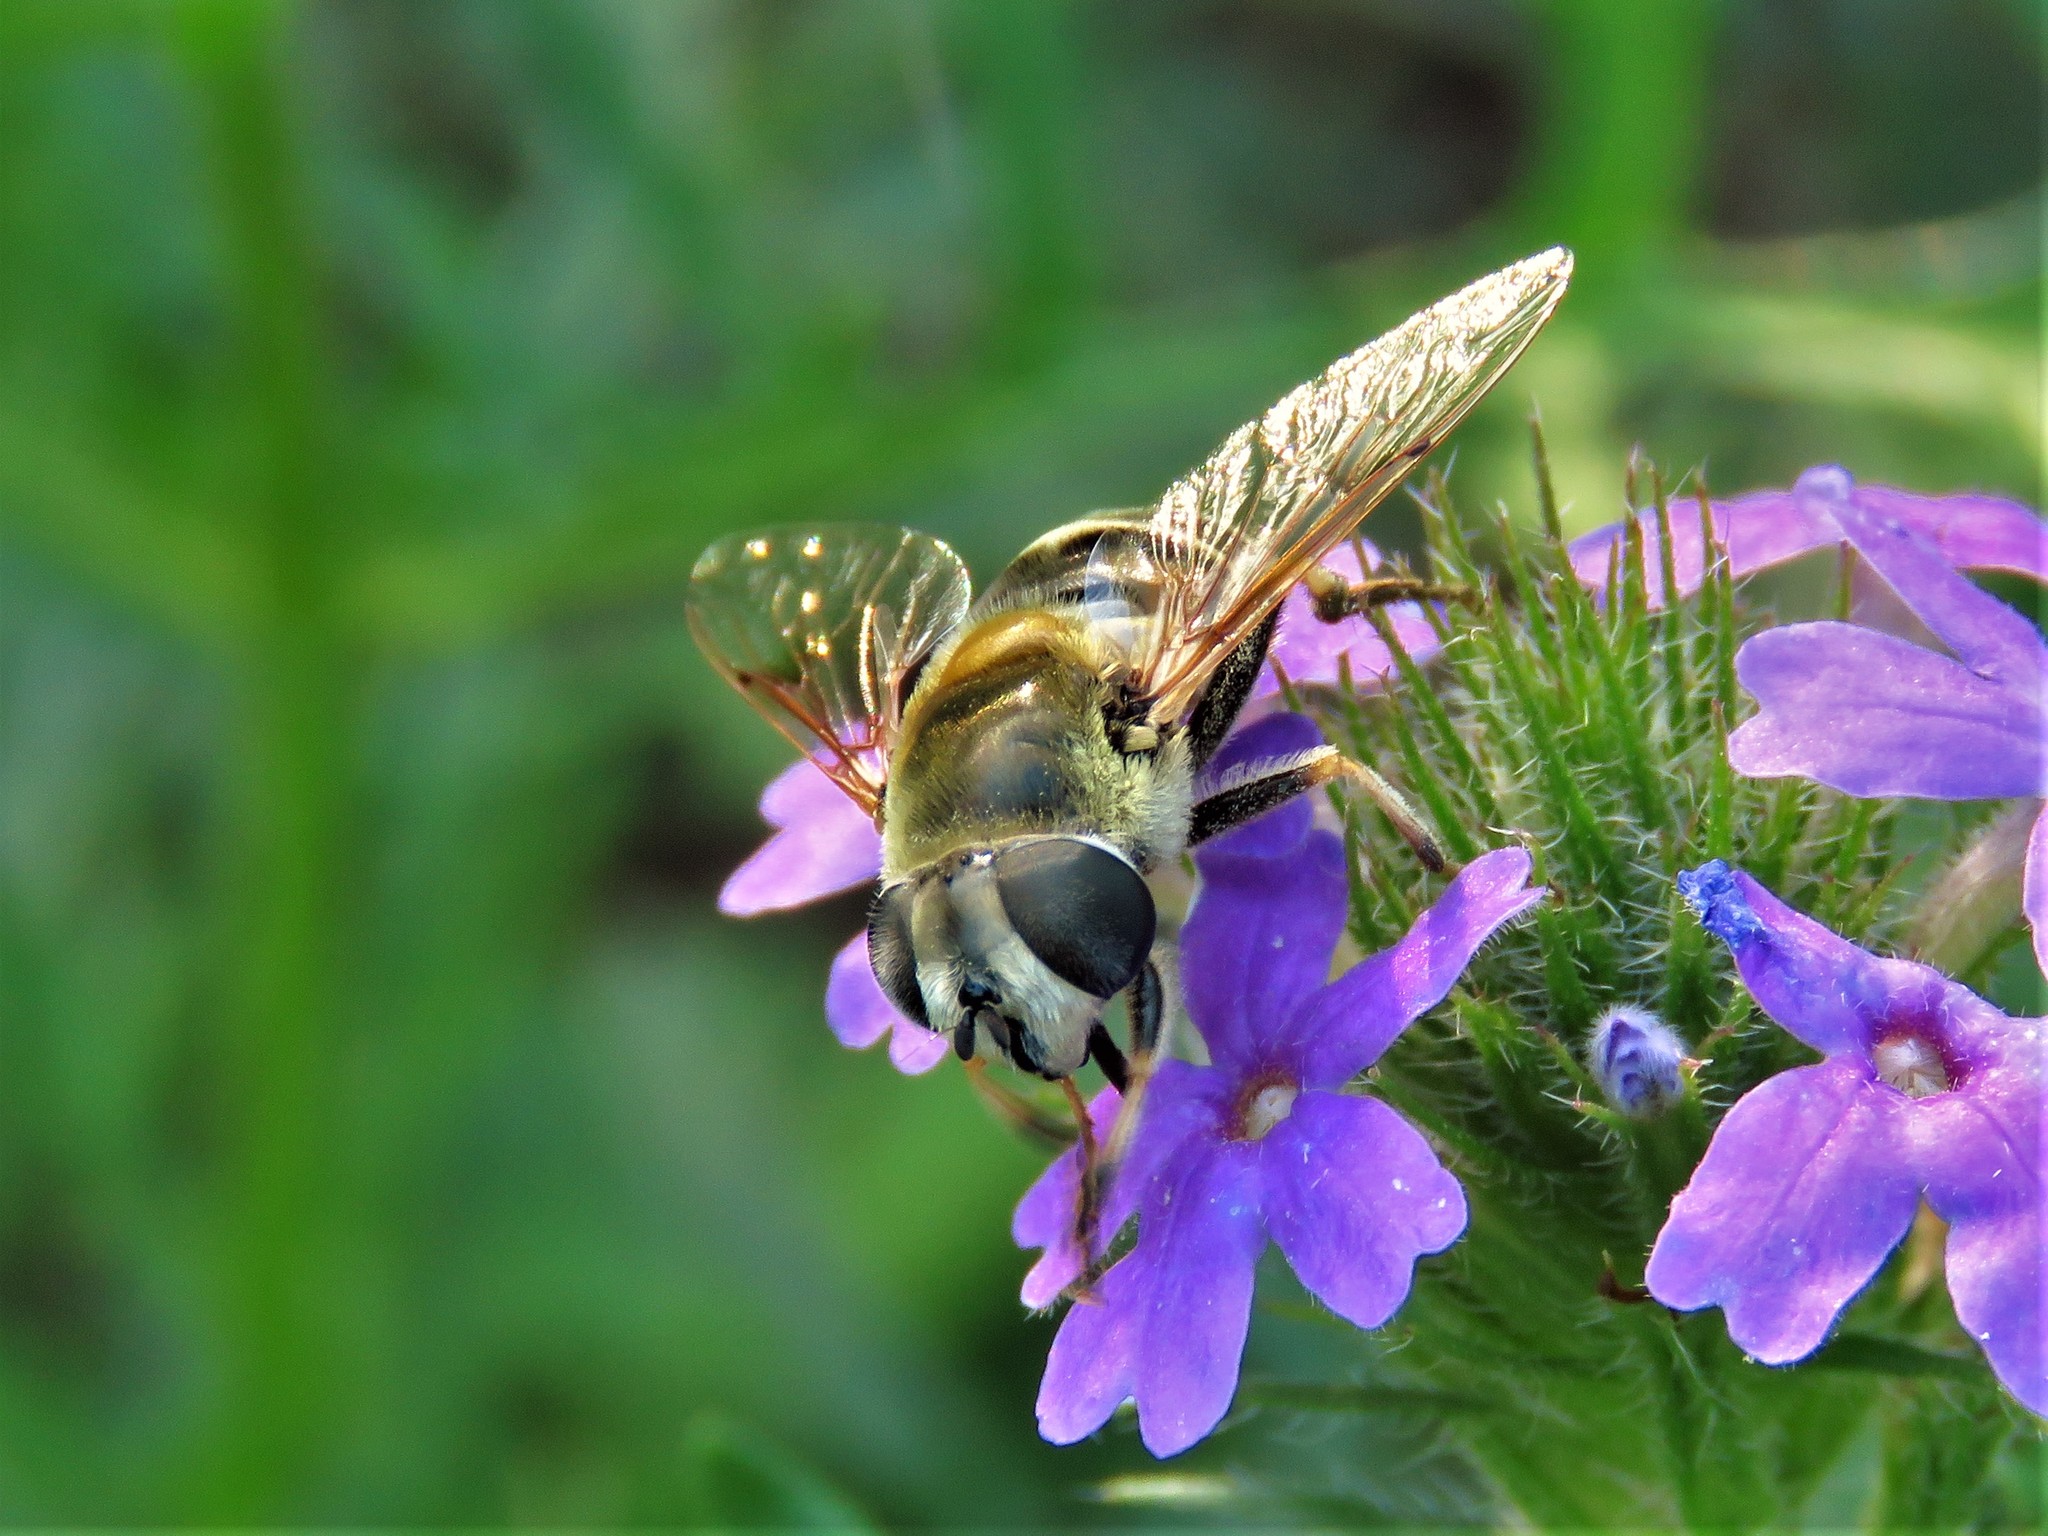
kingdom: Animalia
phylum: Arthropoda
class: Insecta
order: Diptera
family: Syrphidae
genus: Eristalis
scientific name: Eristalis stipator
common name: Yellow-shouldered drone fly
